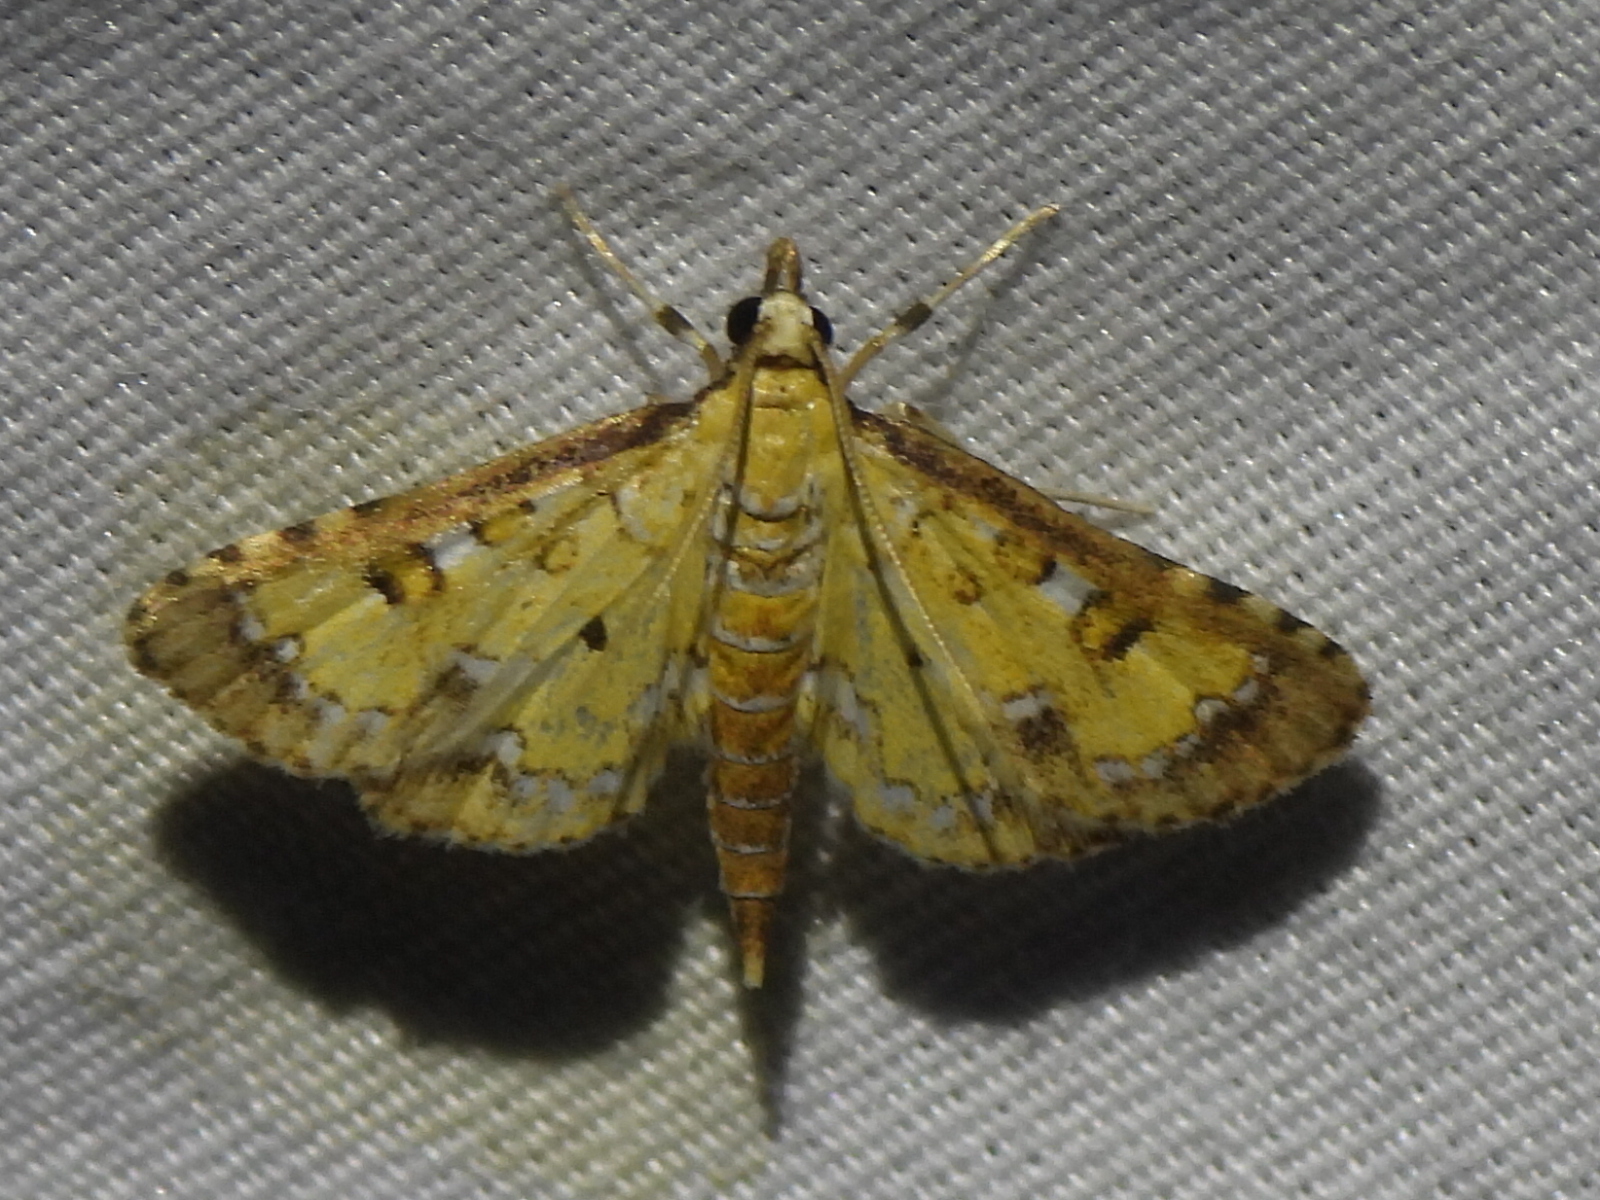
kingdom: Animalia
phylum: Arthropoda
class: Insecta
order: Lepidoptera
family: Crambidae
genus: Niphograpta
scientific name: Niphograpta albiguttalis
